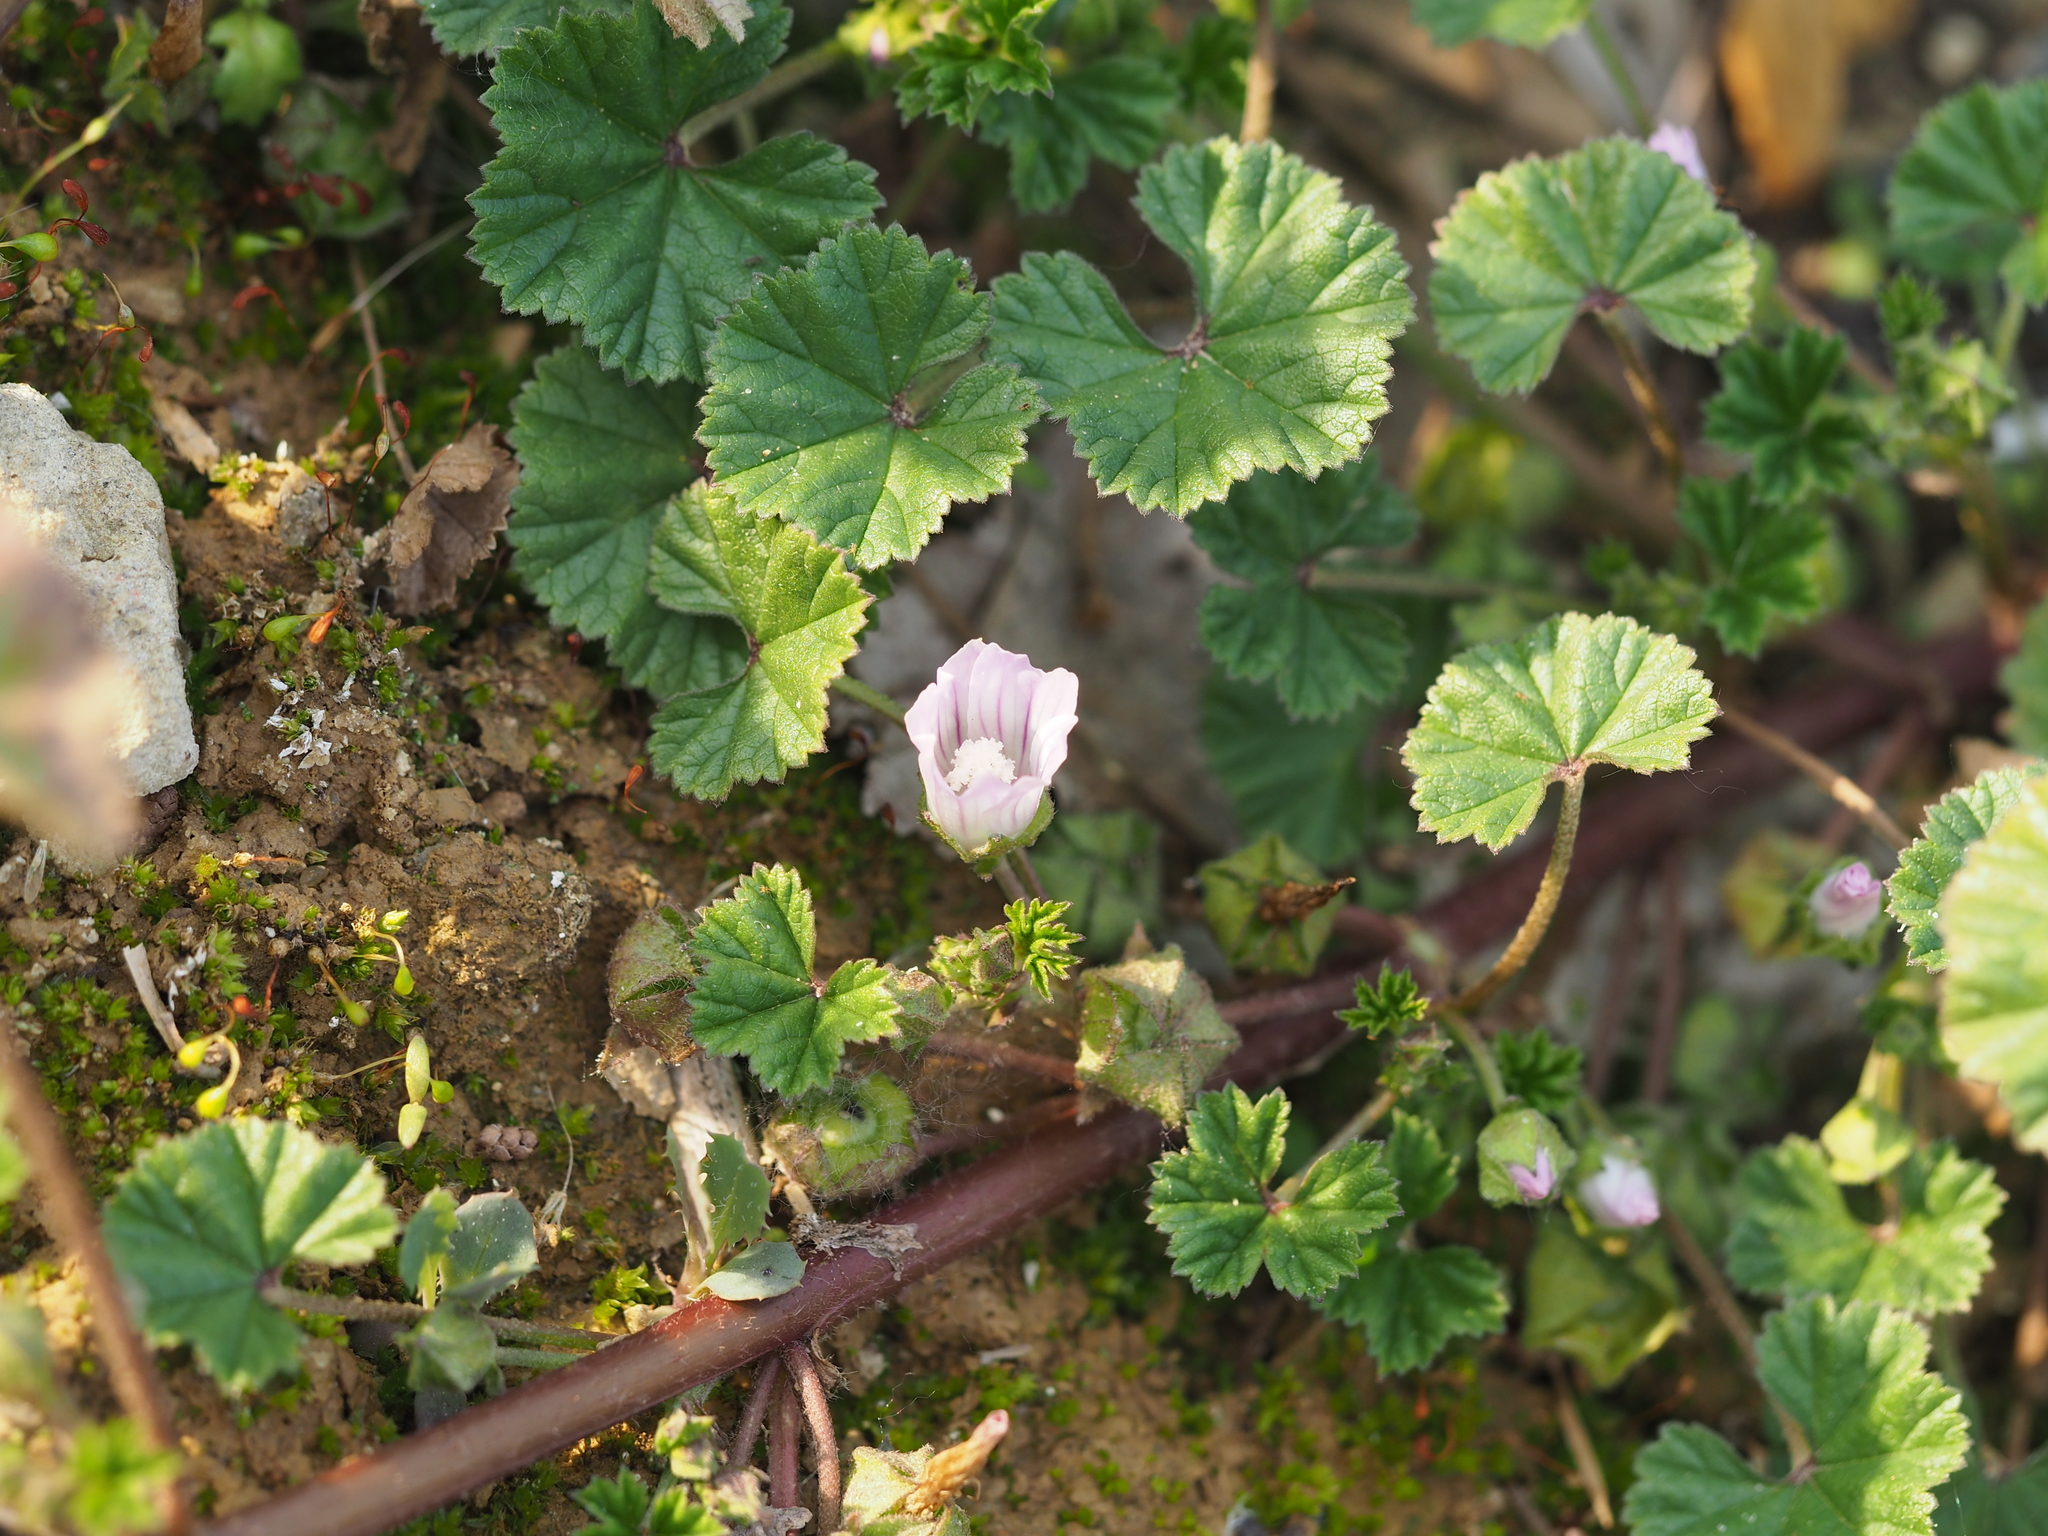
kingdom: Plantae
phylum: Tracheophyta
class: Magnoliopsida
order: Malvales
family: Malvaceae
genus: Malva
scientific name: Malva neglecta
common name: Common mallow
